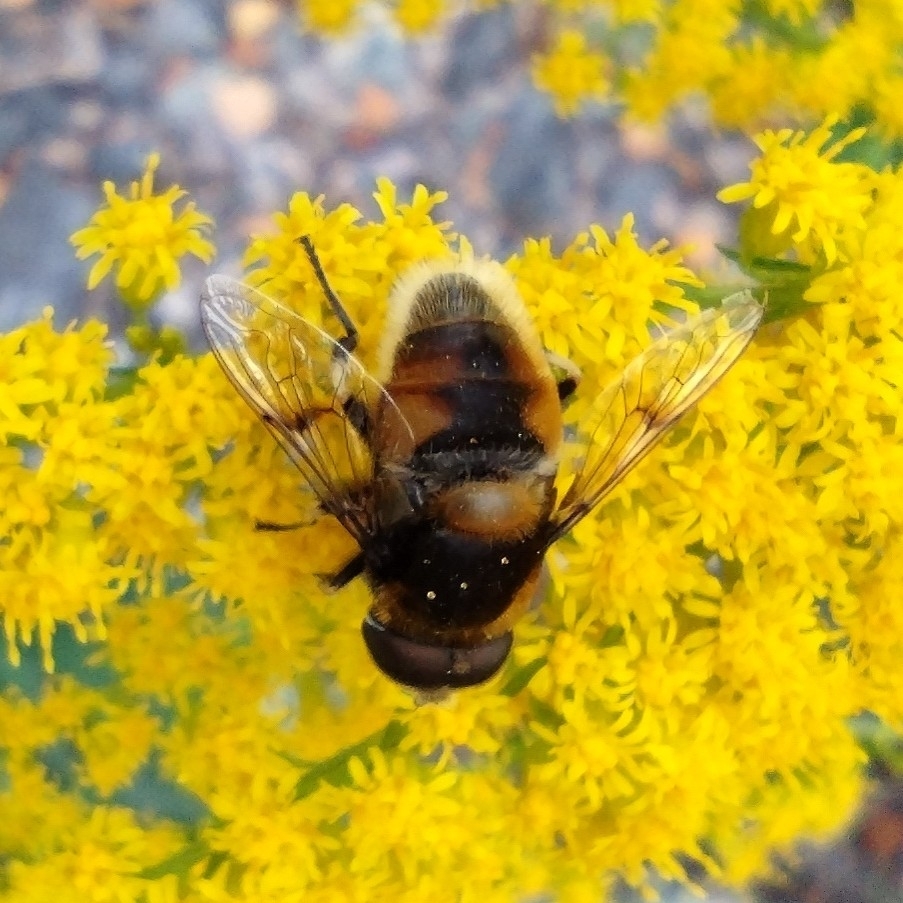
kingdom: Animalia
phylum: Arthropoda
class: Insecta
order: Diptera
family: Syrphidae
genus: Eristalis
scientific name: Eristalis intricaria
